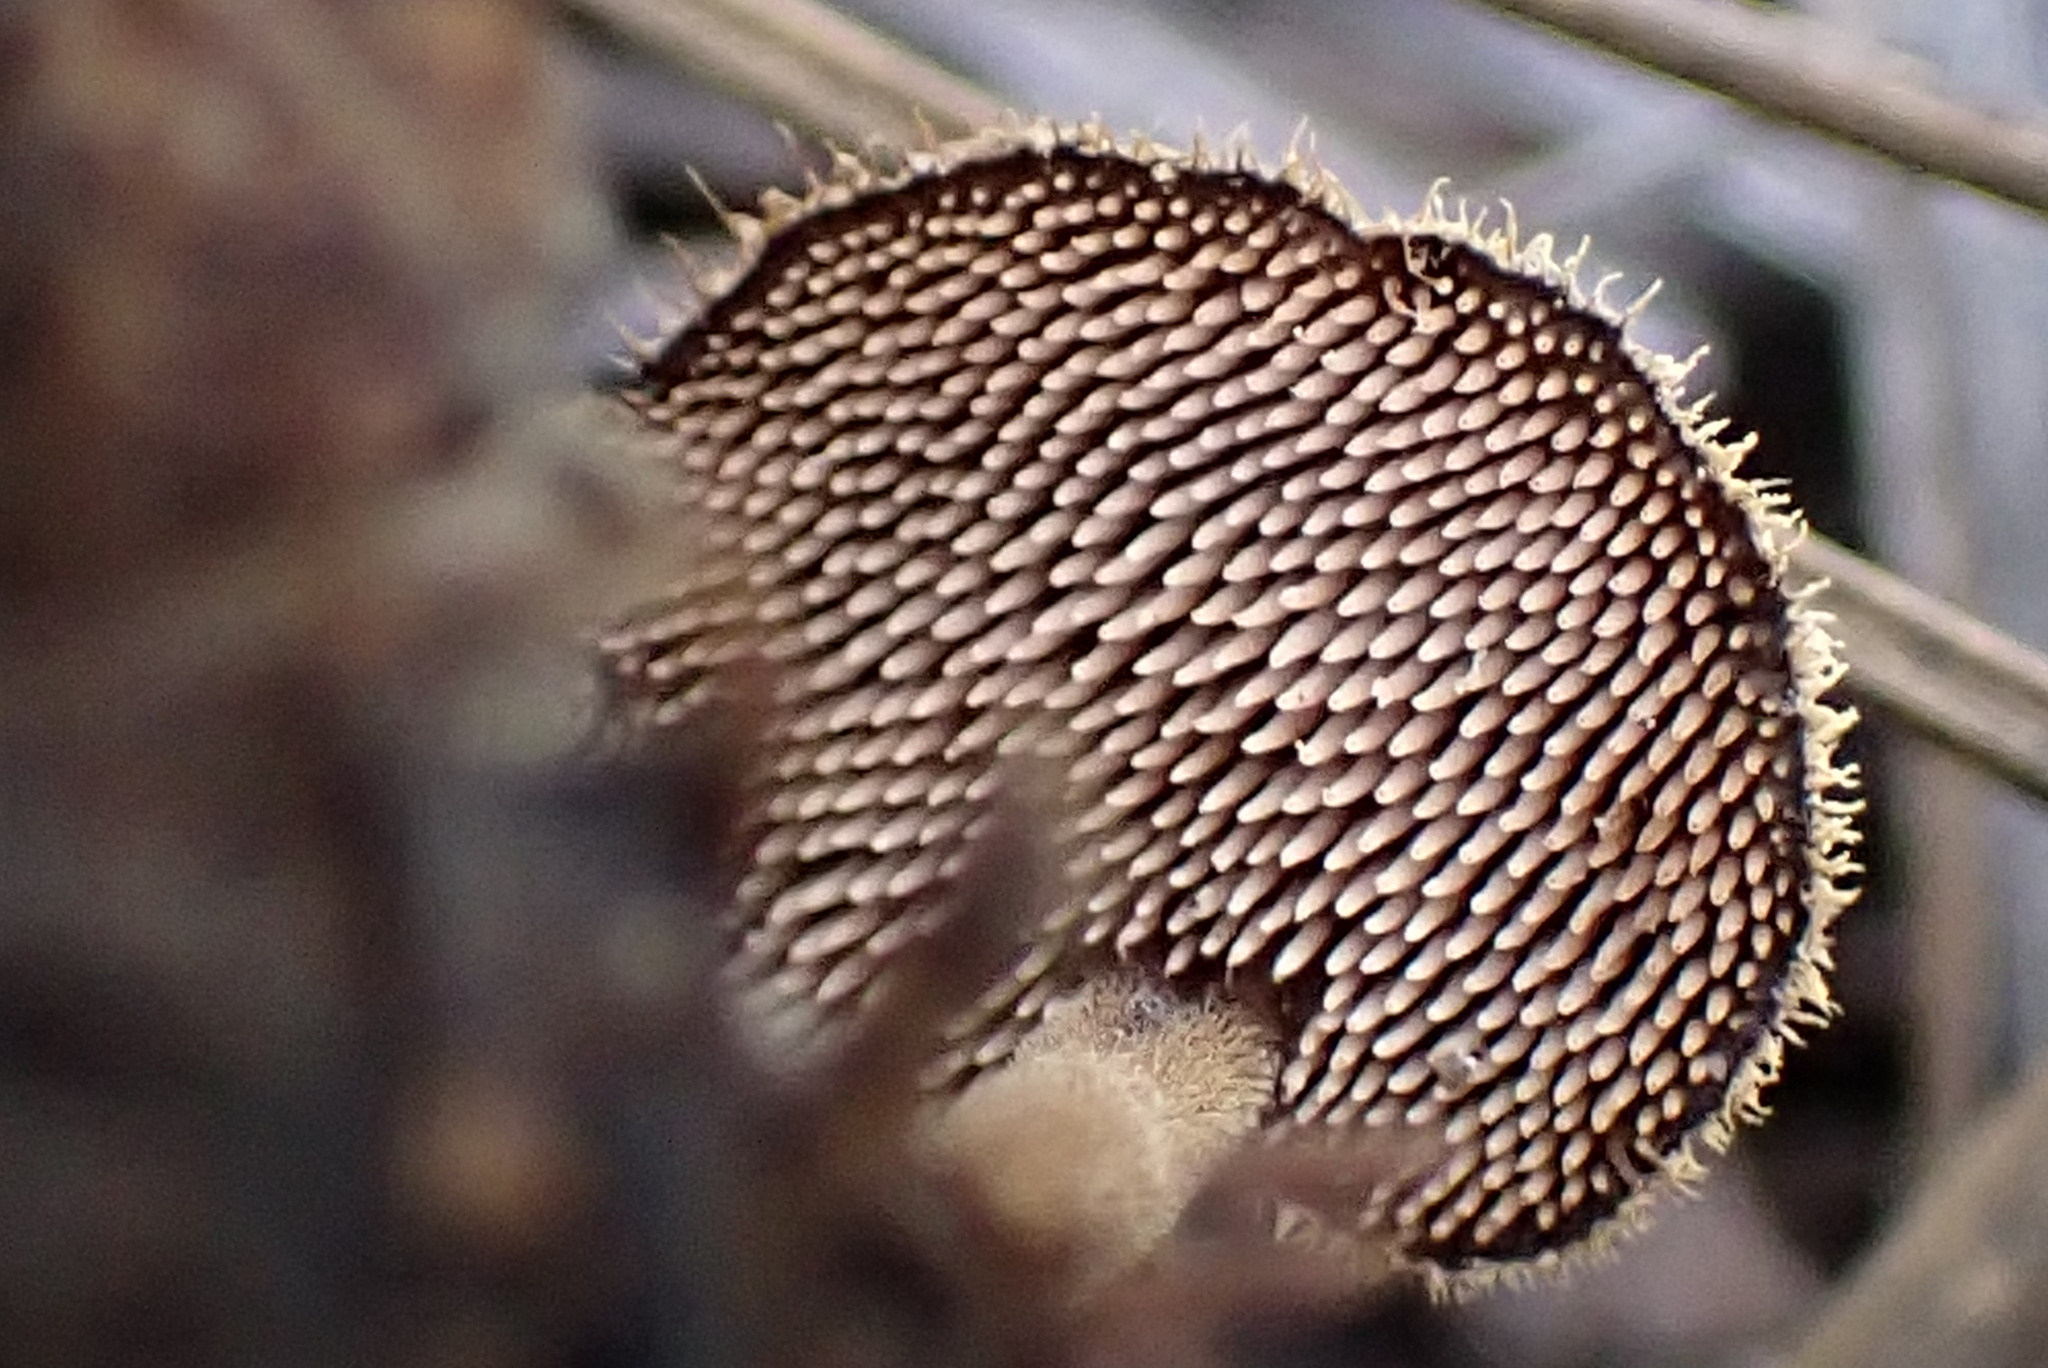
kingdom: Fungi
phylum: Basidiomycota
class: Agaricomycetes
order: Russulales
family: Auriscalpiaceae
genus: Auriscalpium
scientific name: Auriscalpium vulgare
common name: Earpick fungus
